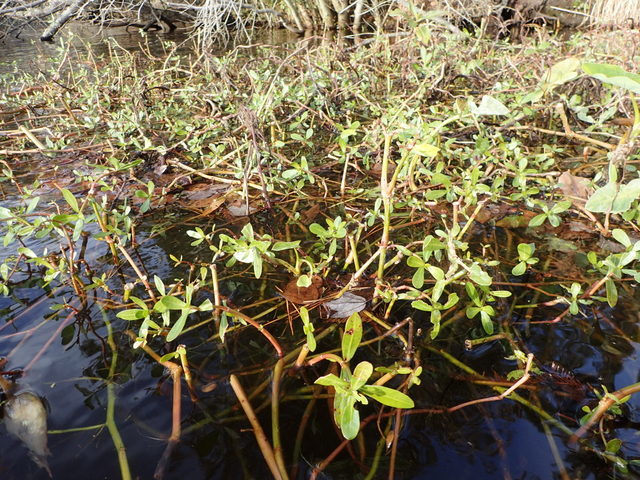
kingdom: Plantae
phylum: Tracheophyta
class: Magnoliopsida
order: Caryophyllales
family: Amaranthaceae
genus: Alternanthera
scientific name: Alternanthera philoxeroides
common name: Alligatorweed
